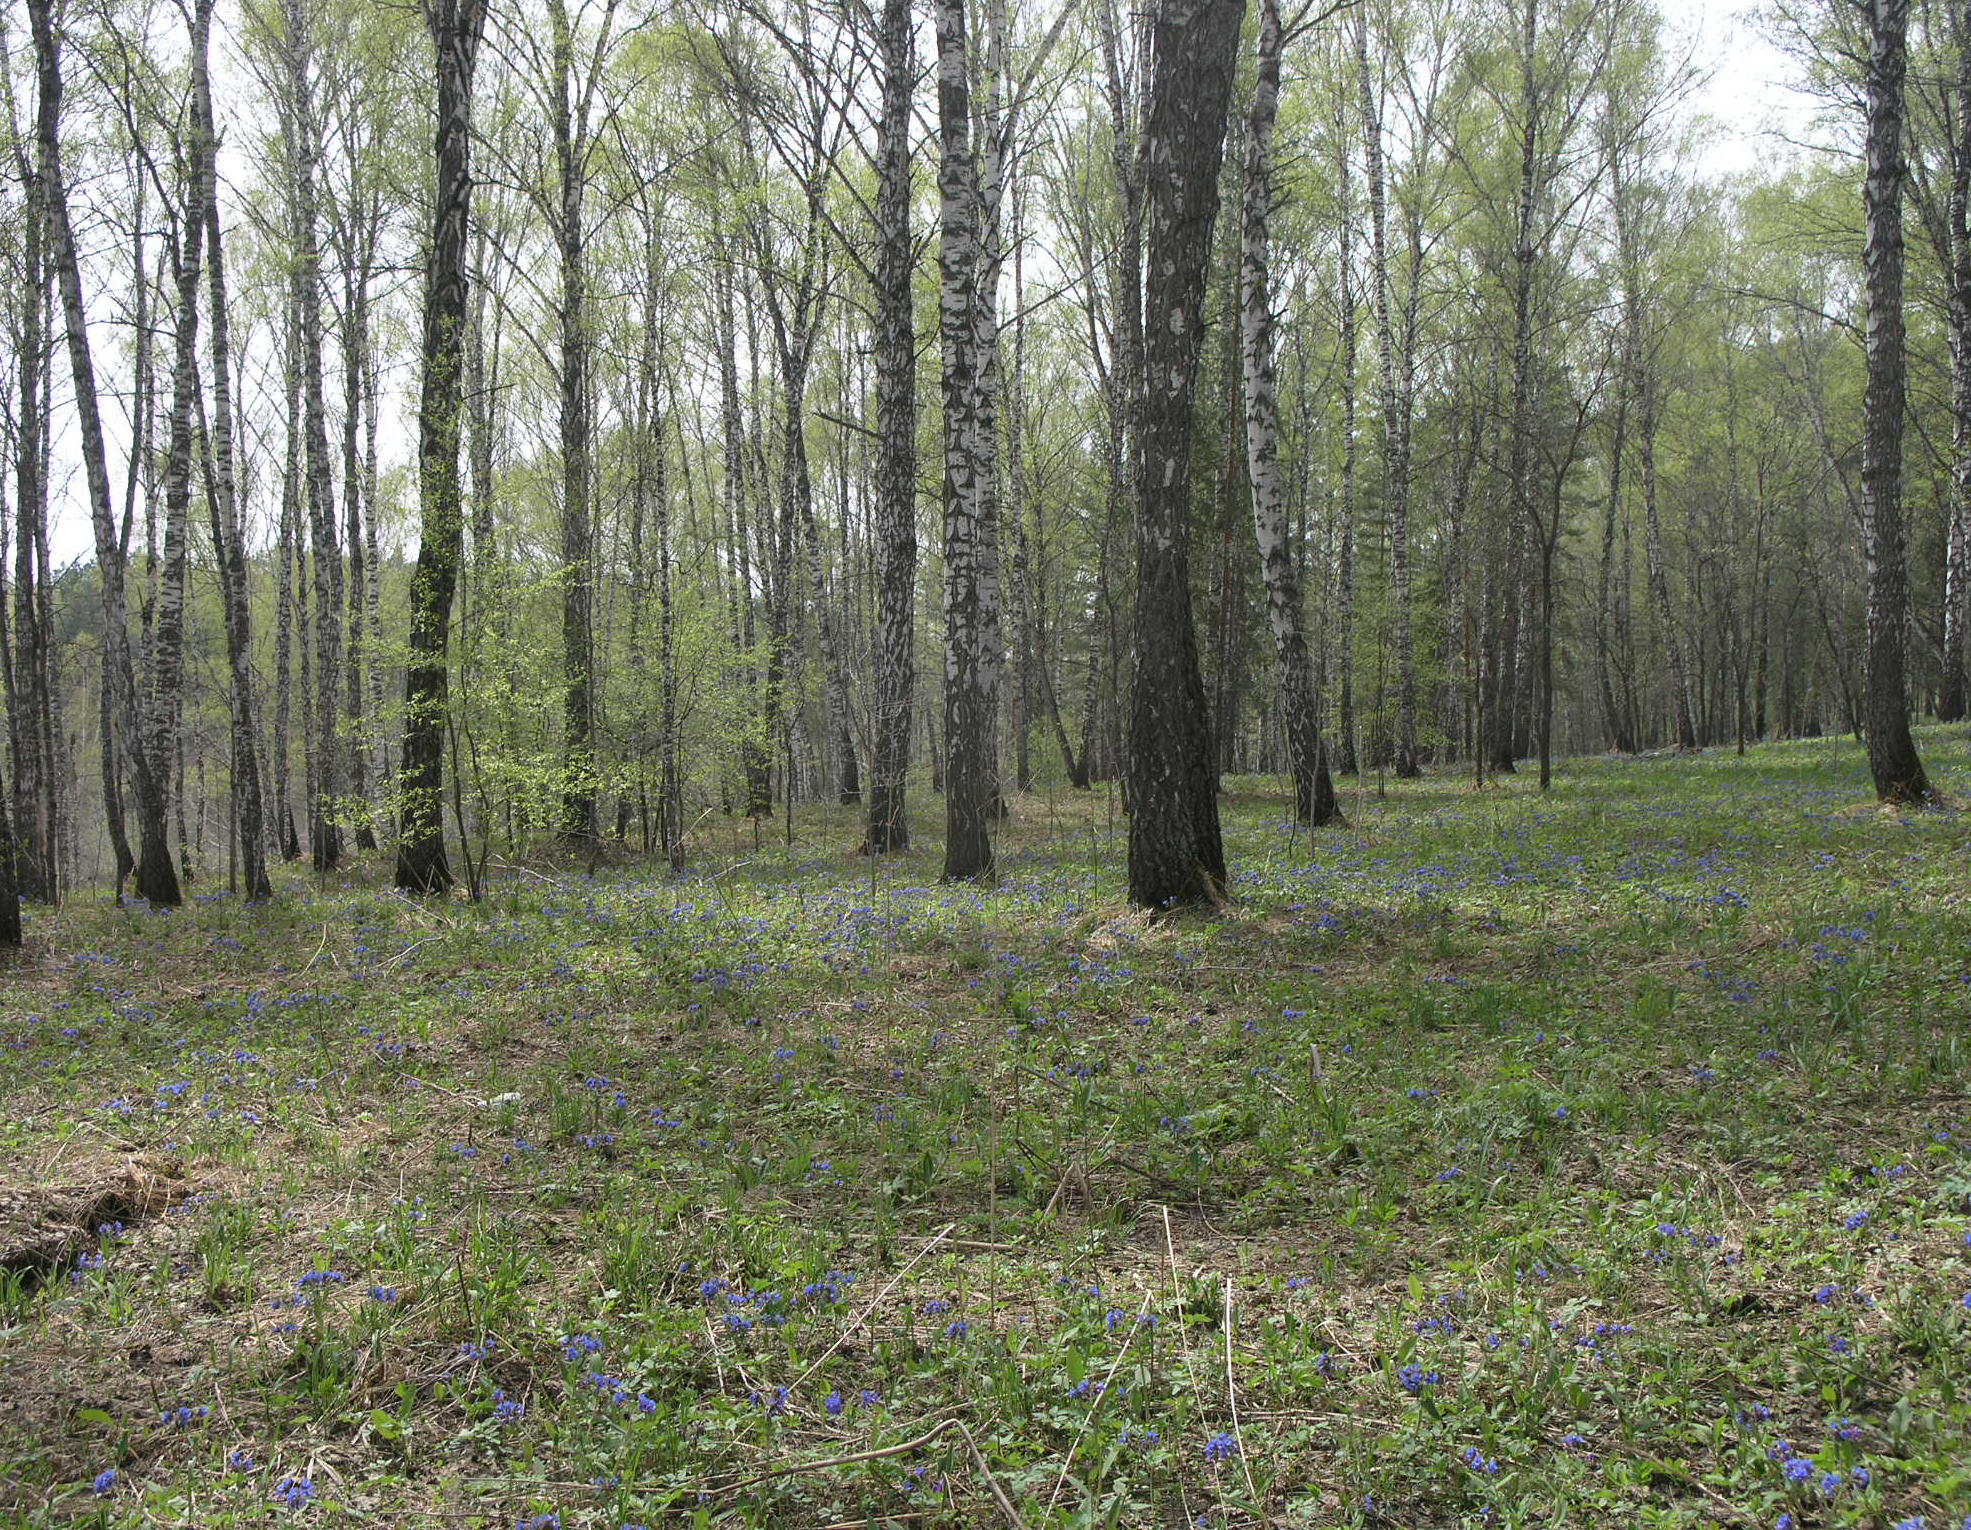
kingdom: Plantae
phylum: Tracheophyta
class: Magnoliopsida
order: Boraginales
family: Boraginaceae
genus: Pulmonaria
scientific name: Pulmonaria mollis
